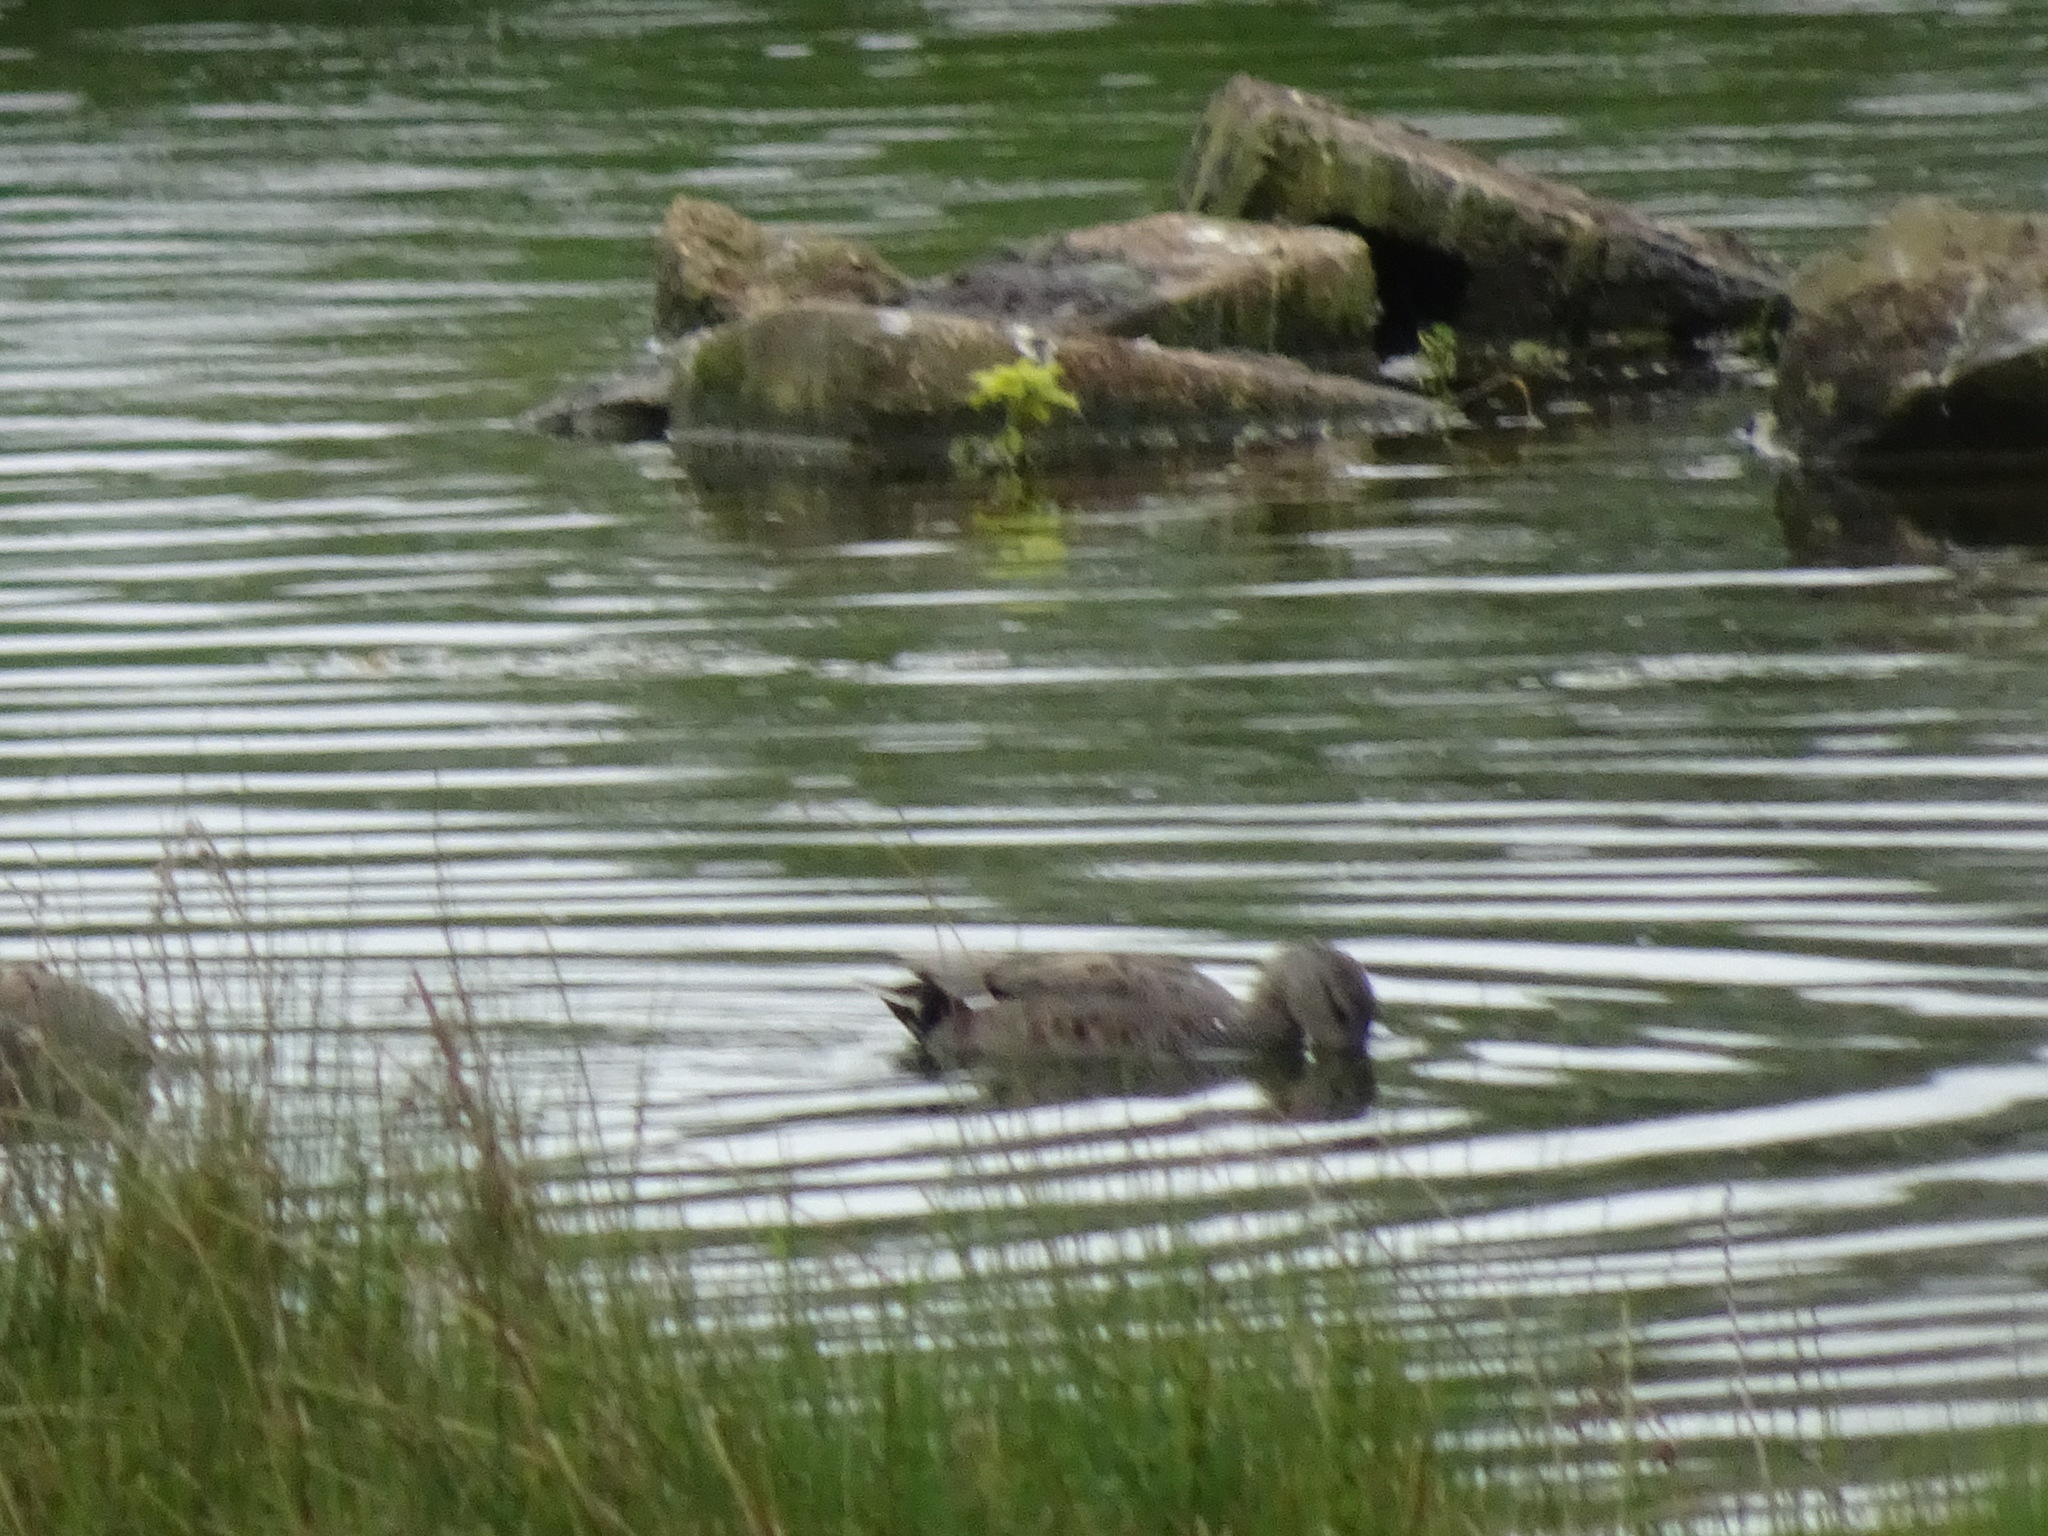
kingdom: Animalia
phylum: Chordata
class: Aves
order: Anseriformes
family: Anatidae
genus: Mareca
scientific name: Mareca strepera
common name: Gadwall
